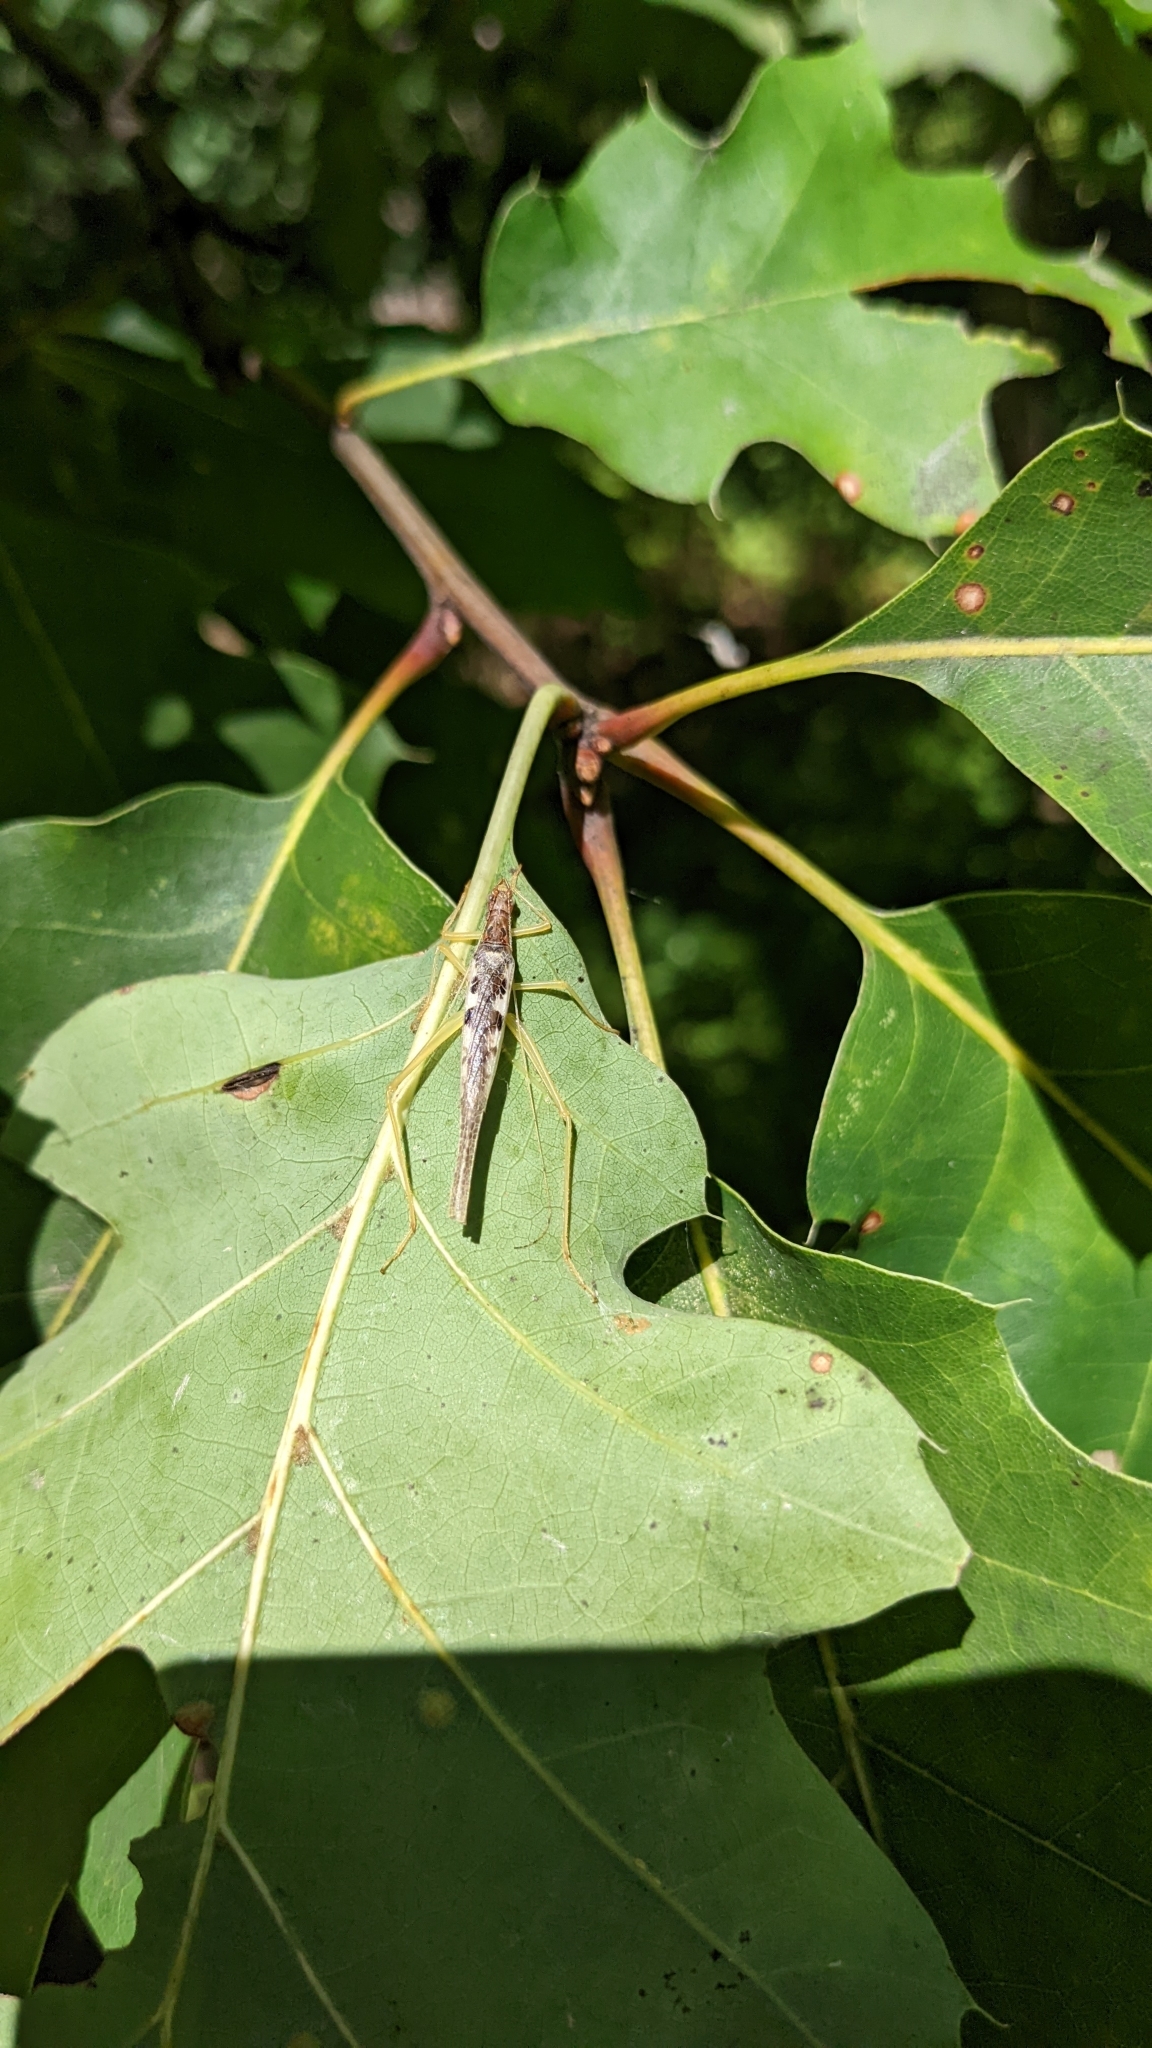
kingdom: Animalia
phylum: Arthropoda
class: Insecta
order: Orthoptera
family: Gryllidae
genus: Neoxabea
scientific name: Neoxabea bipunctata
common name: Two-spotted tree cricket
